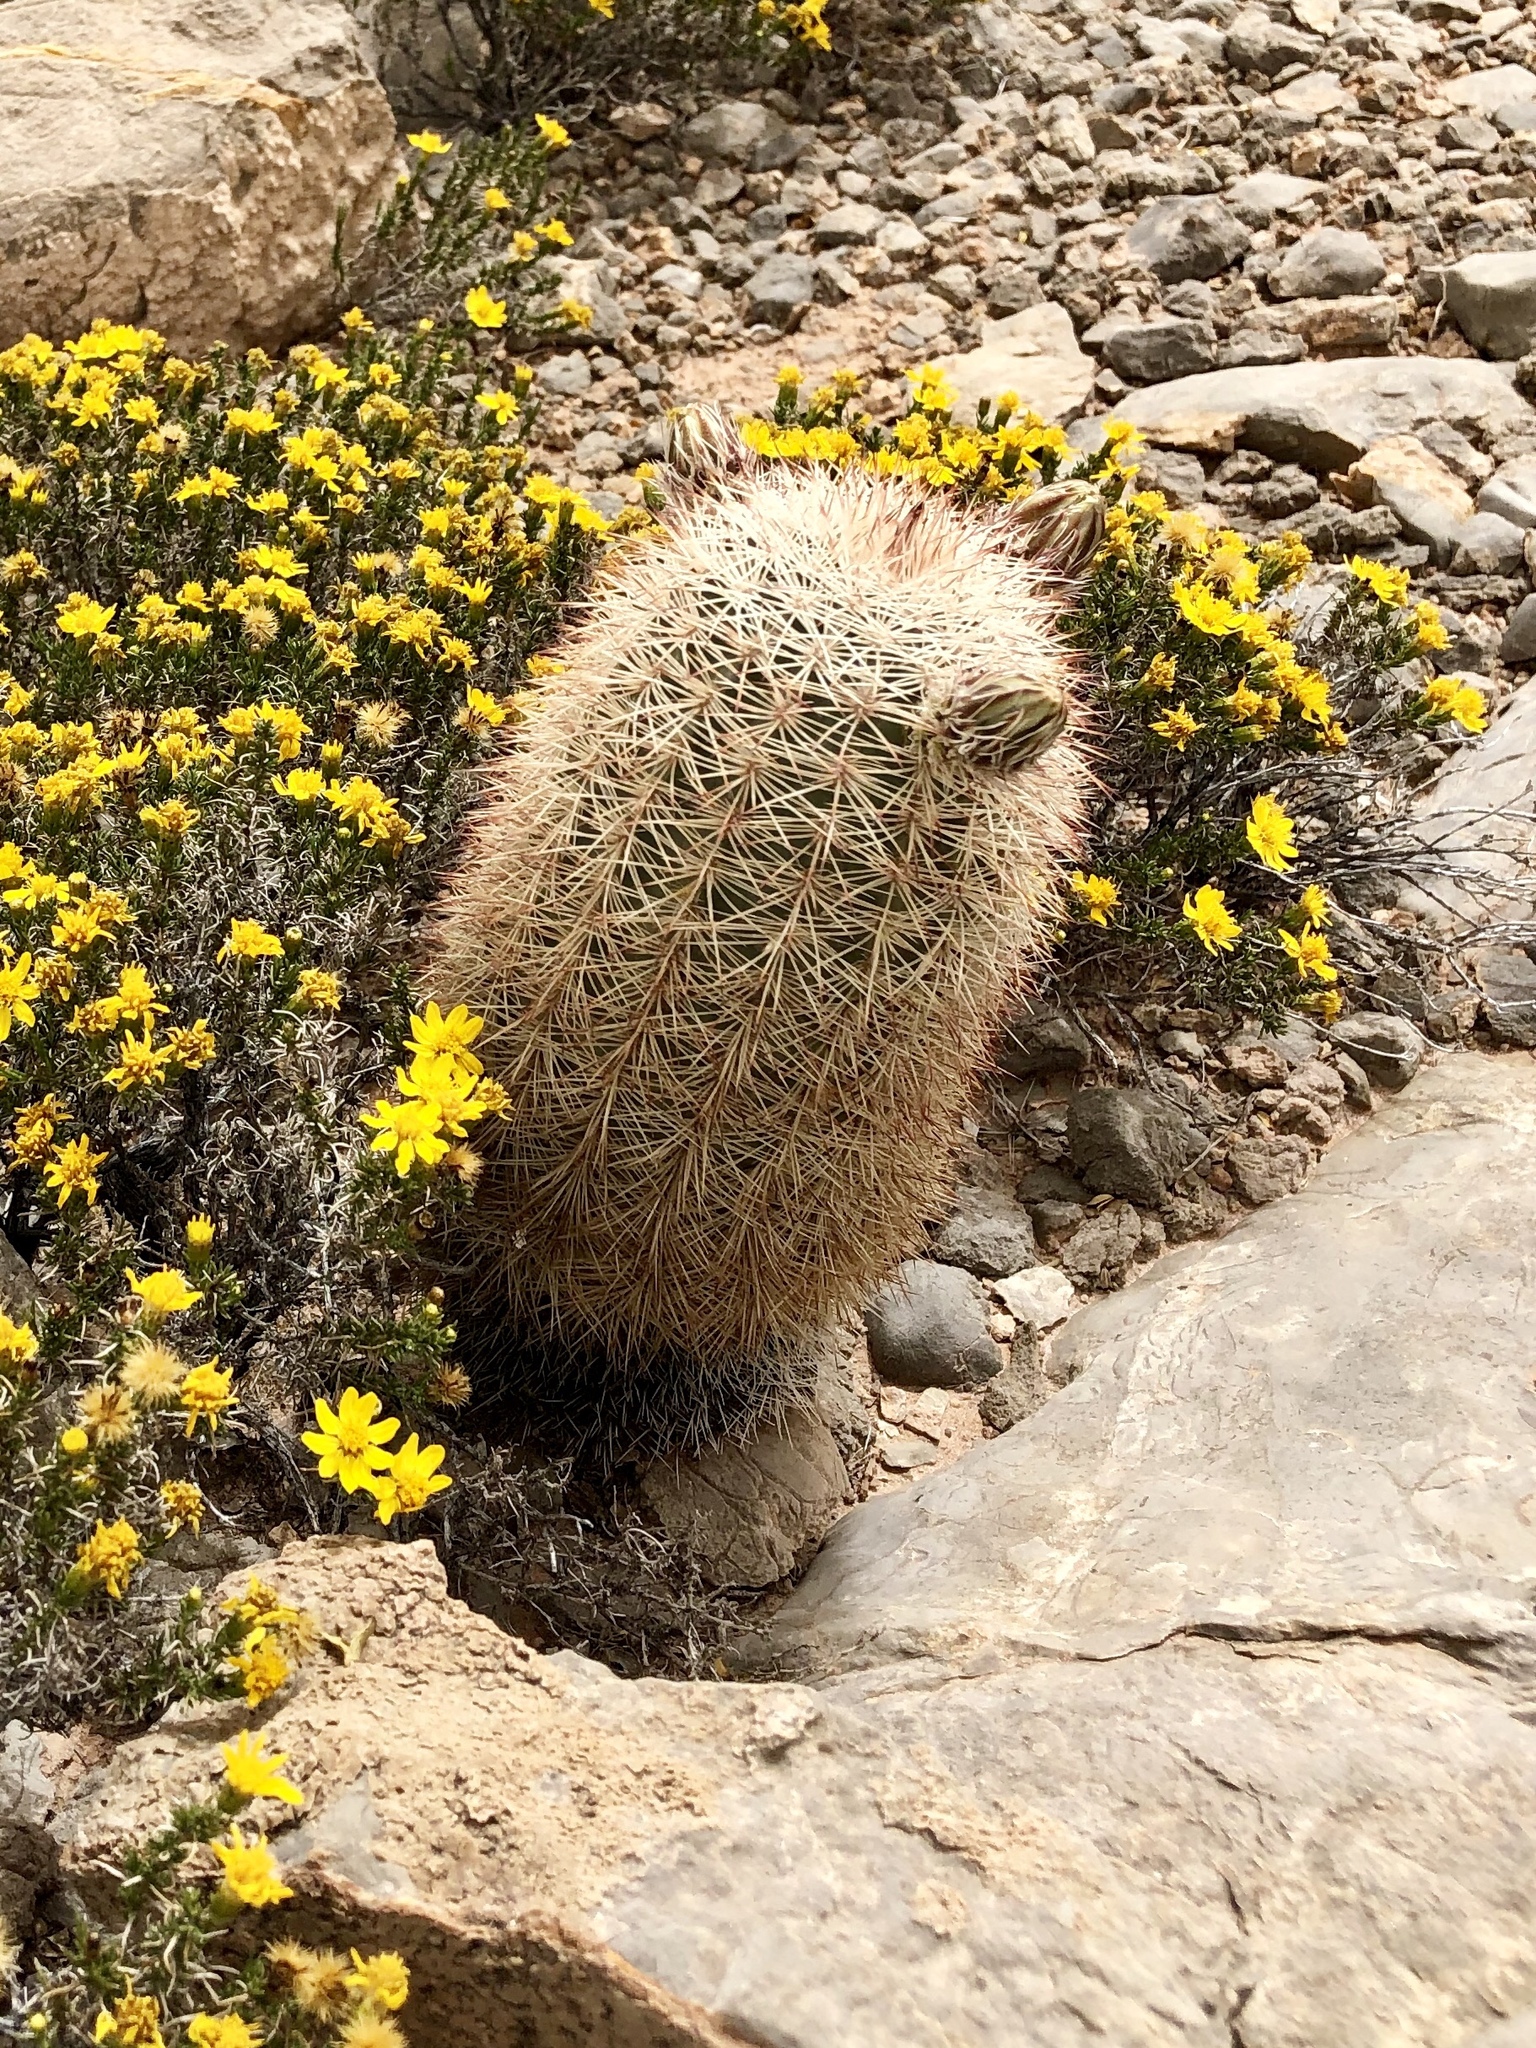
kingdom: Plantae
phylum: Tracheophyta
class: Magnoliopsida
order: Caryophyllales
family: Cactaceae
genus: Echinocereus
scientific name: Echinocereus dasyacanthus
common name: Spiny hedgehog cactus
